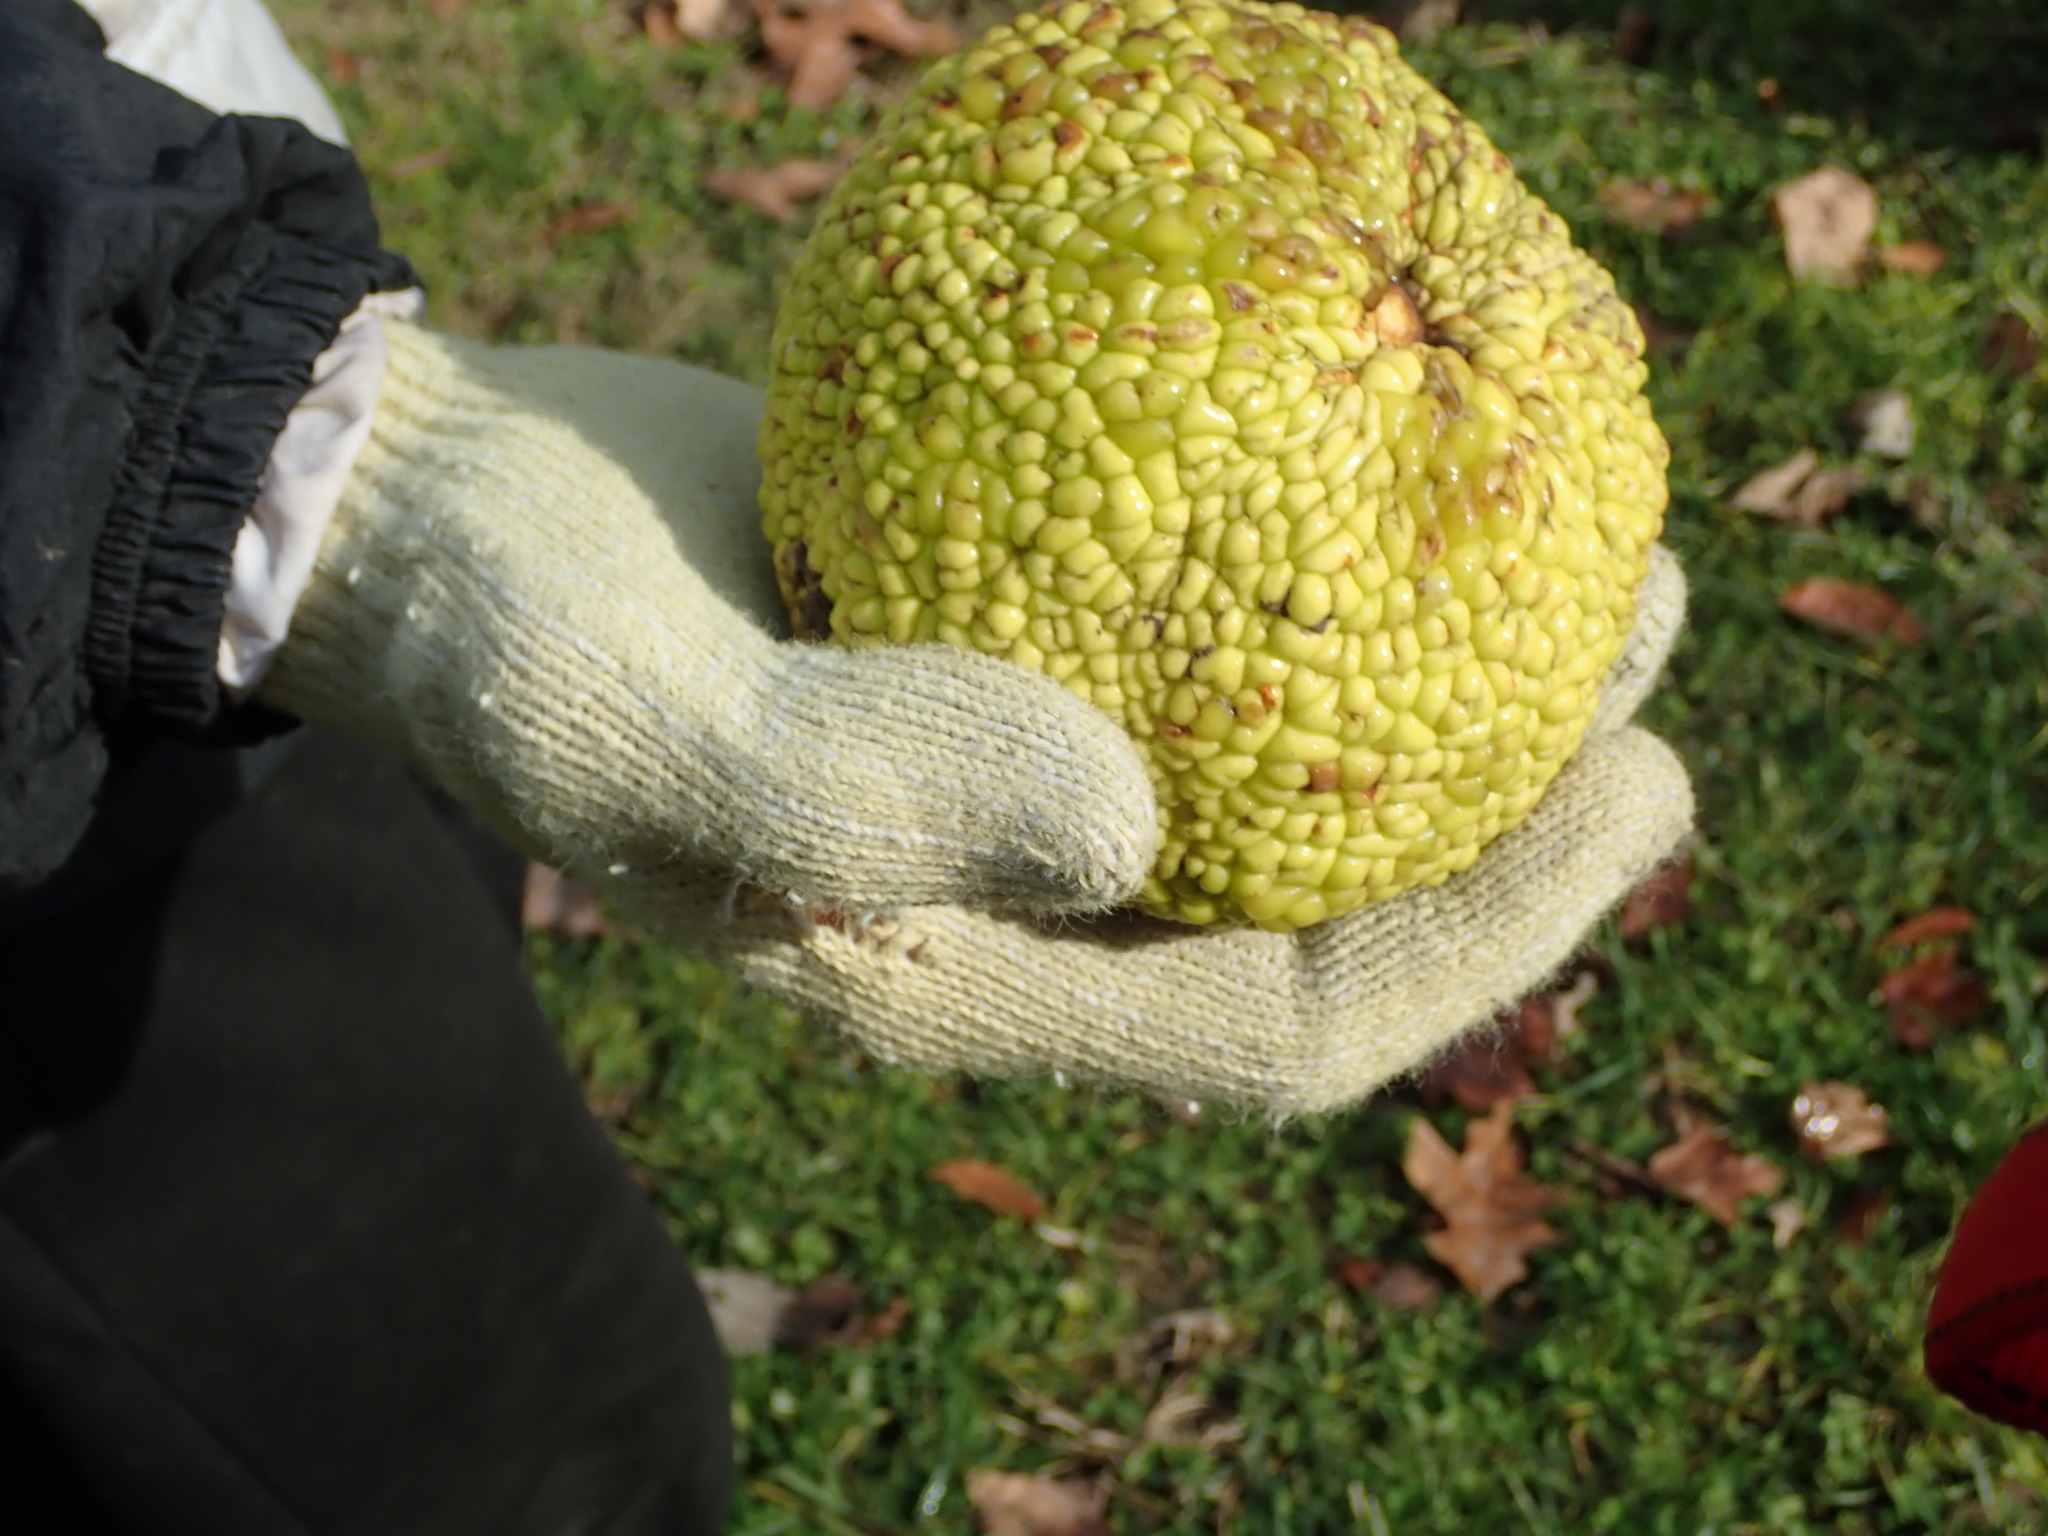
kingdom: Plantae
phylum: Tracheophyta
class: Magnoliopsida
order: Rosales
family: Moraceae
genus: Maclura
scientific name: Maclura pomifera
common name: Osage-orange
